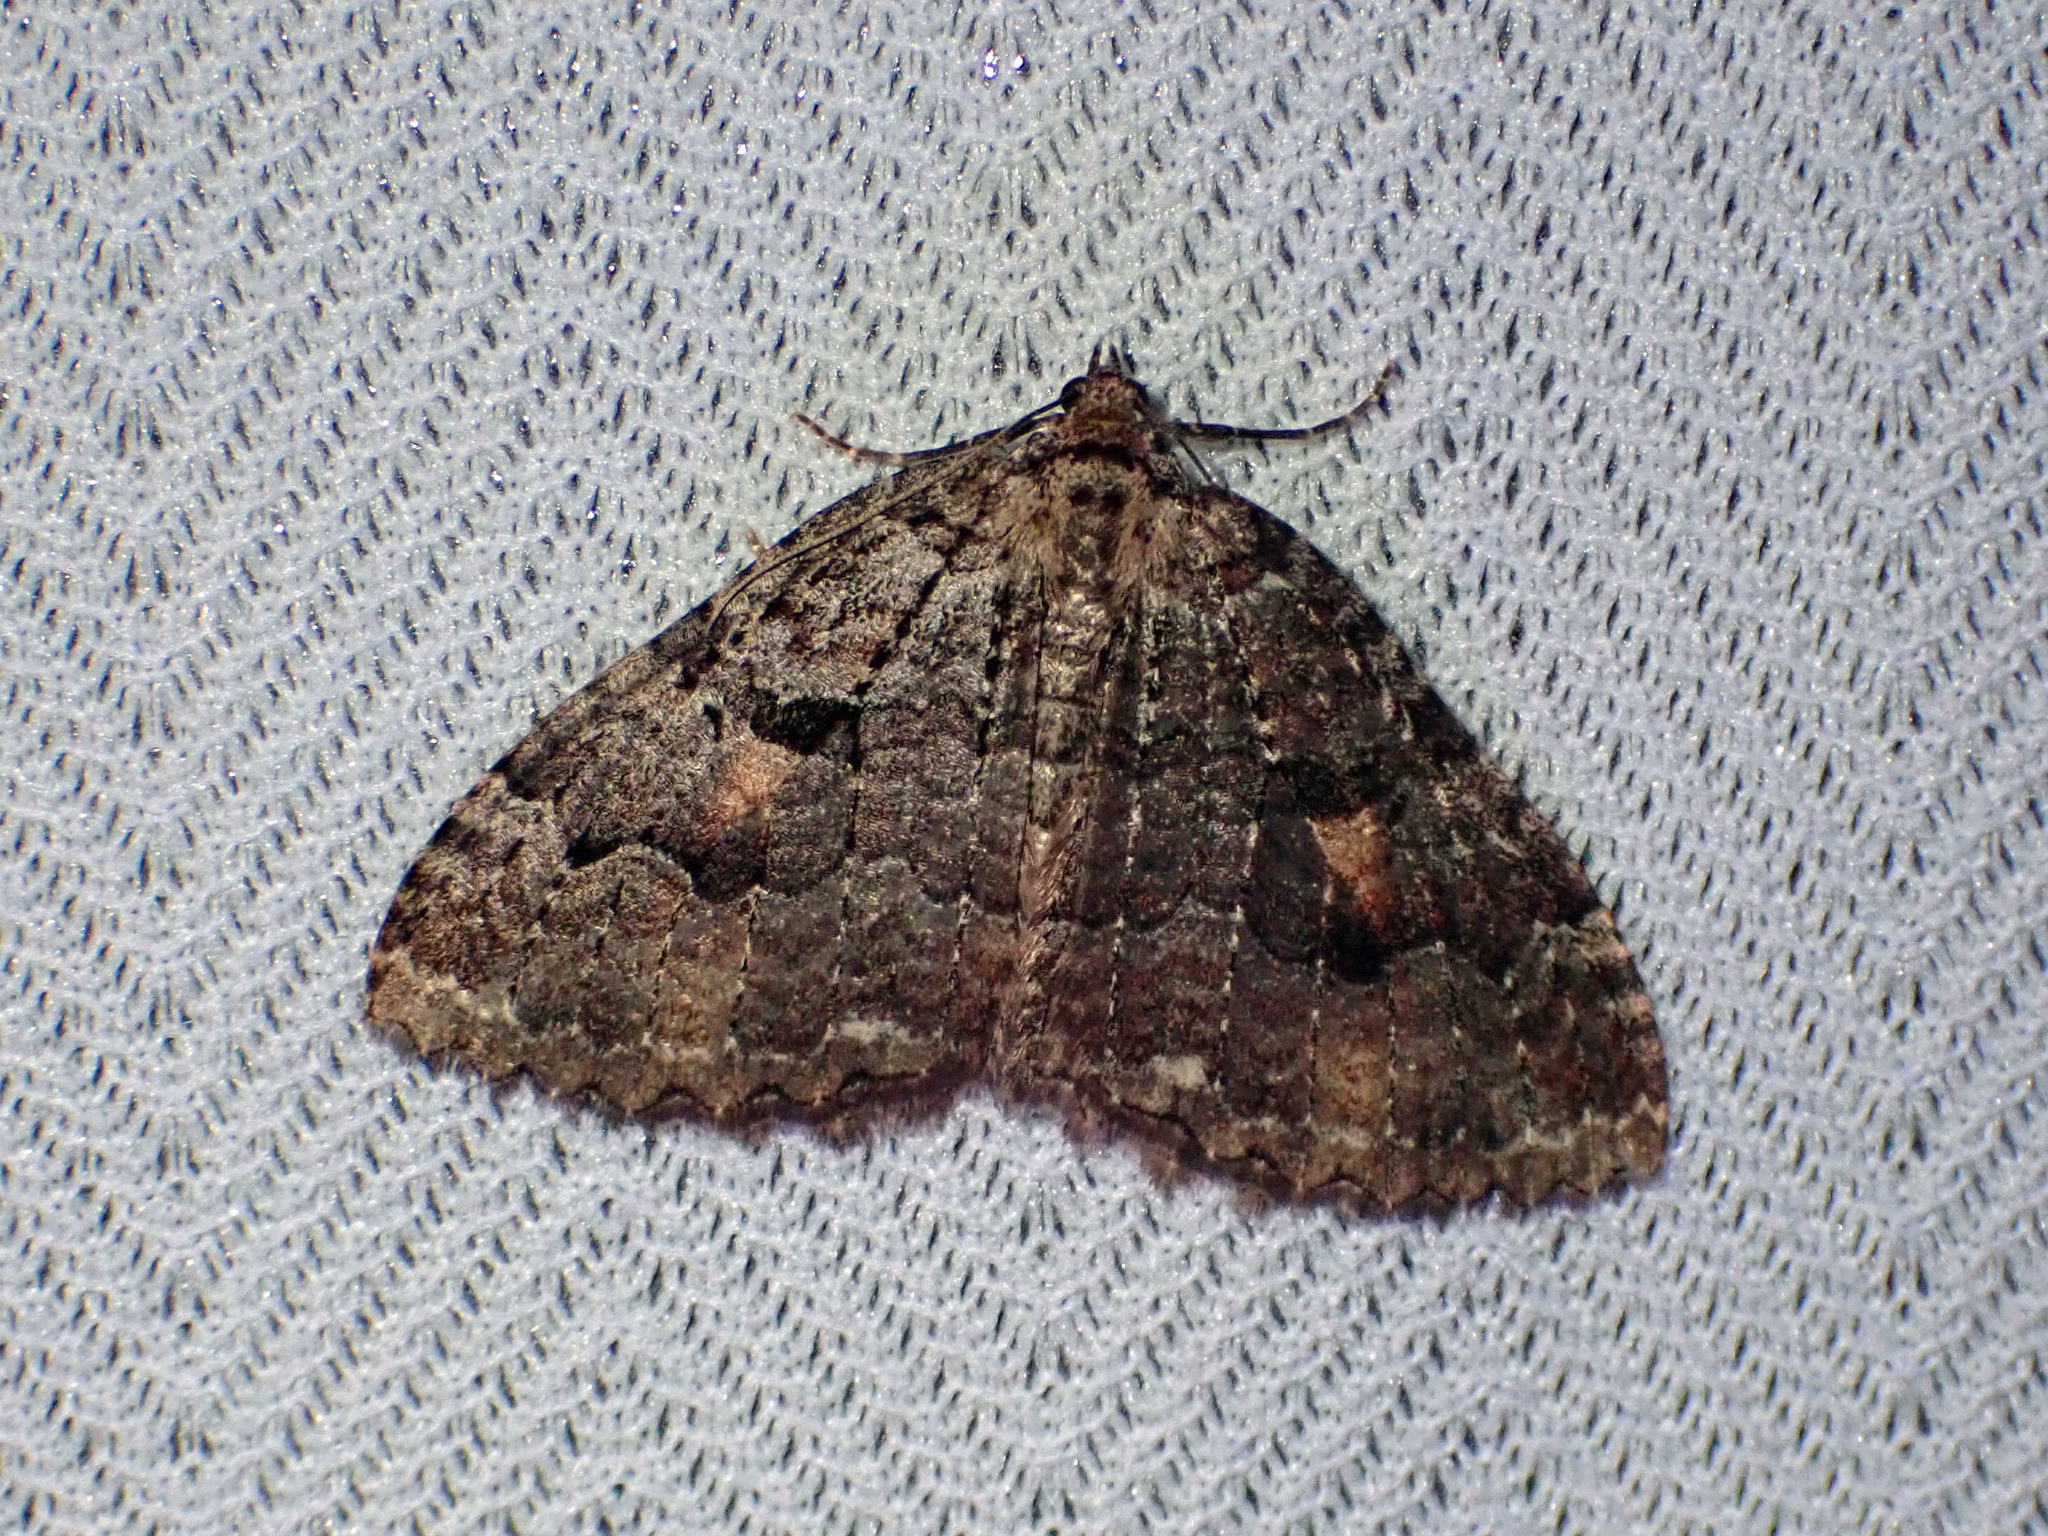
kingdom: Animalia
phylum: Arthropoda
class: Insecta
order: Lepidoptera
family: Geometridae
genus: Triphosa
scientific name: Triphosa haesitata
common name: Tissue moth
